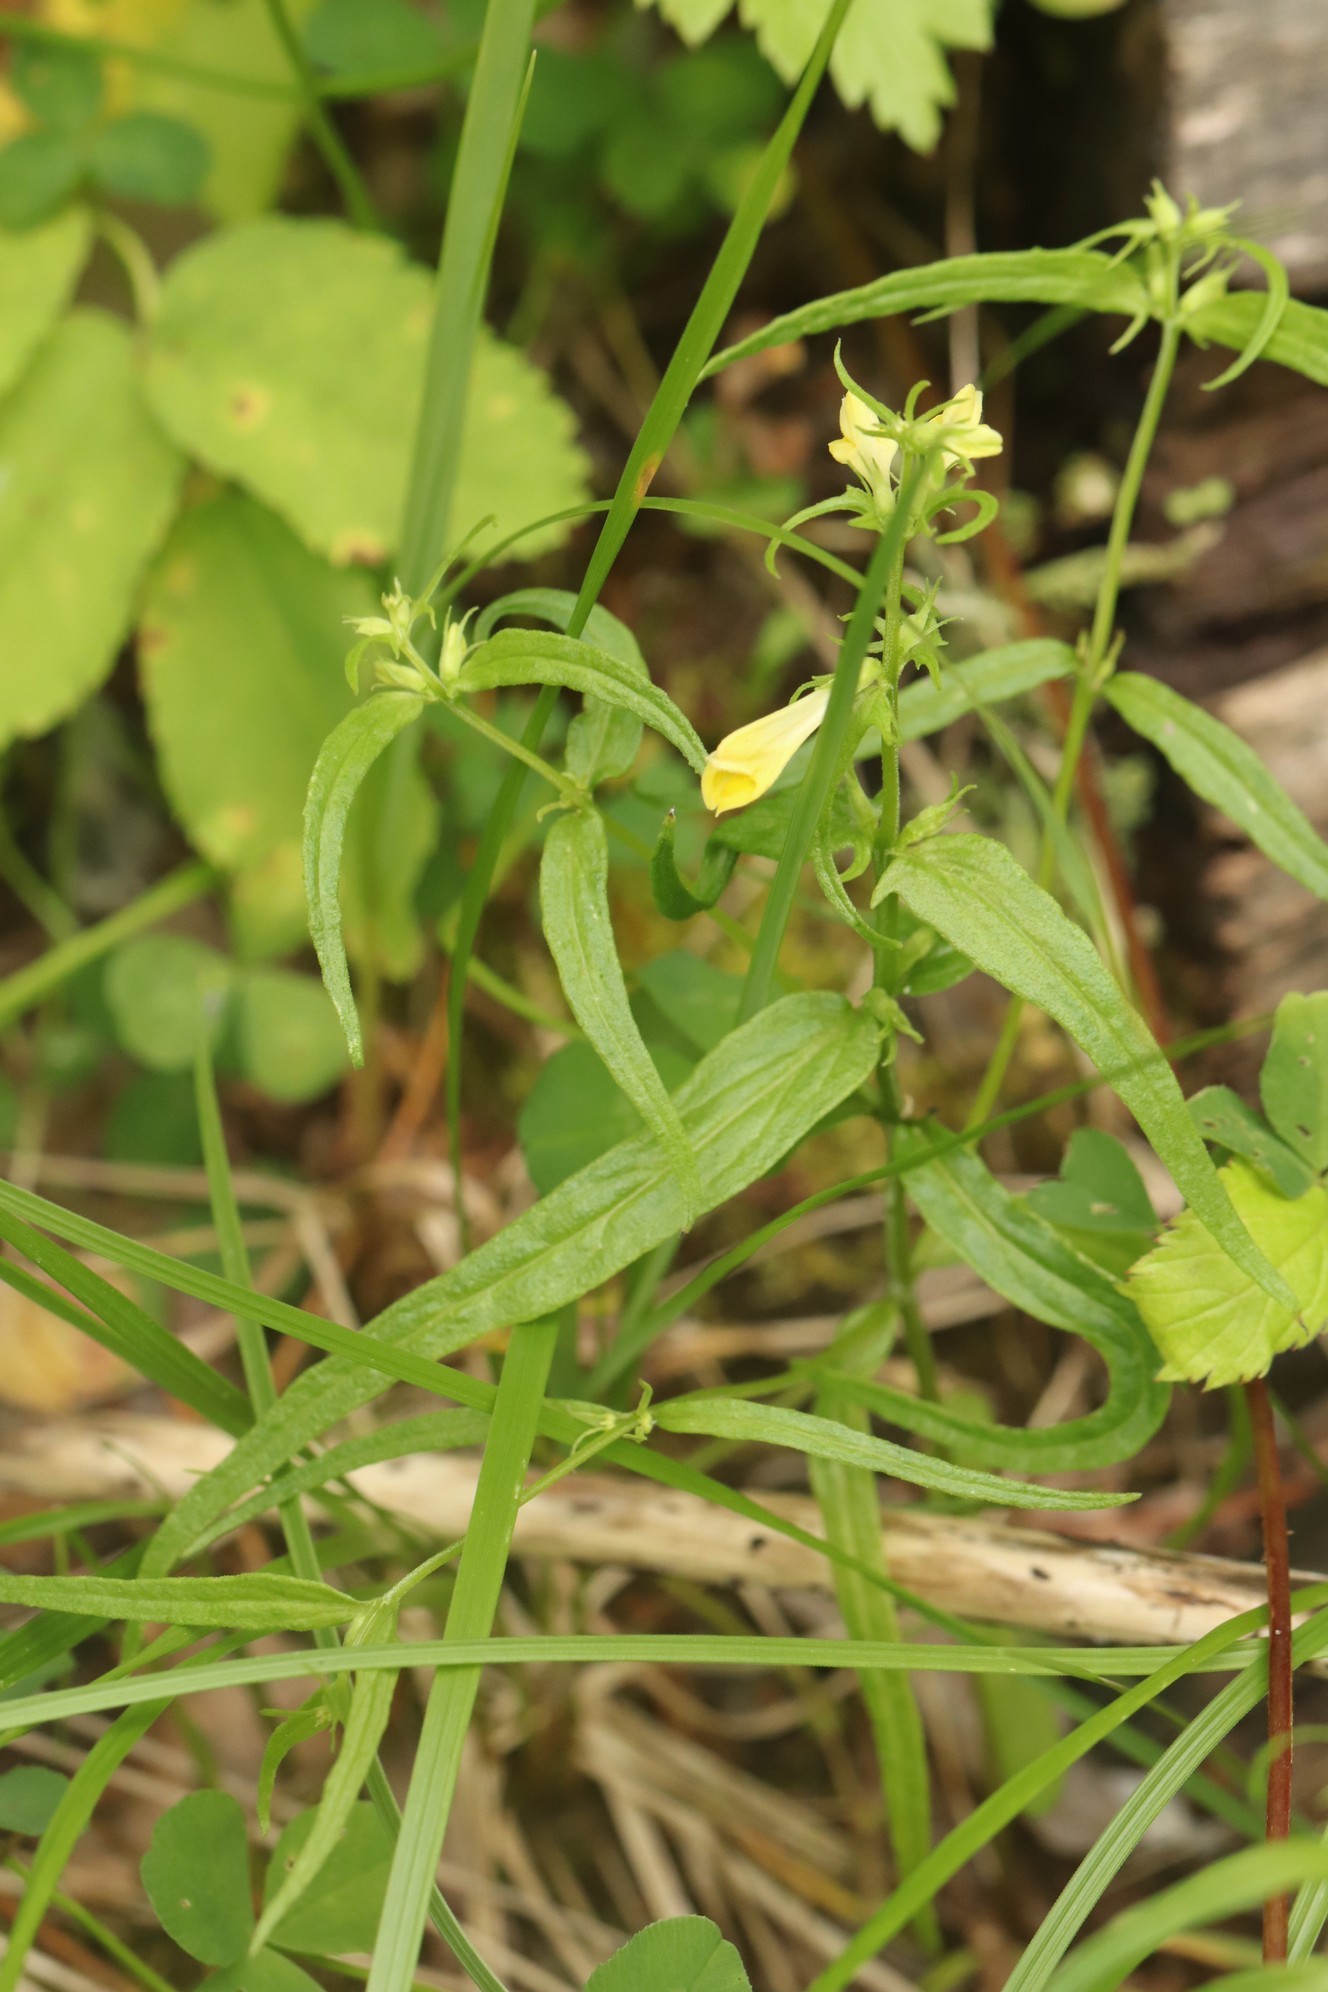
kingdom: Plantae
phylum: Tracheophyta
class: Magnoliopsida
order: Lamiales
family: Orobanchaceae
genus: Melampyrum
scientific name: Melampyrum pratense
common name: Common cow-wheat
